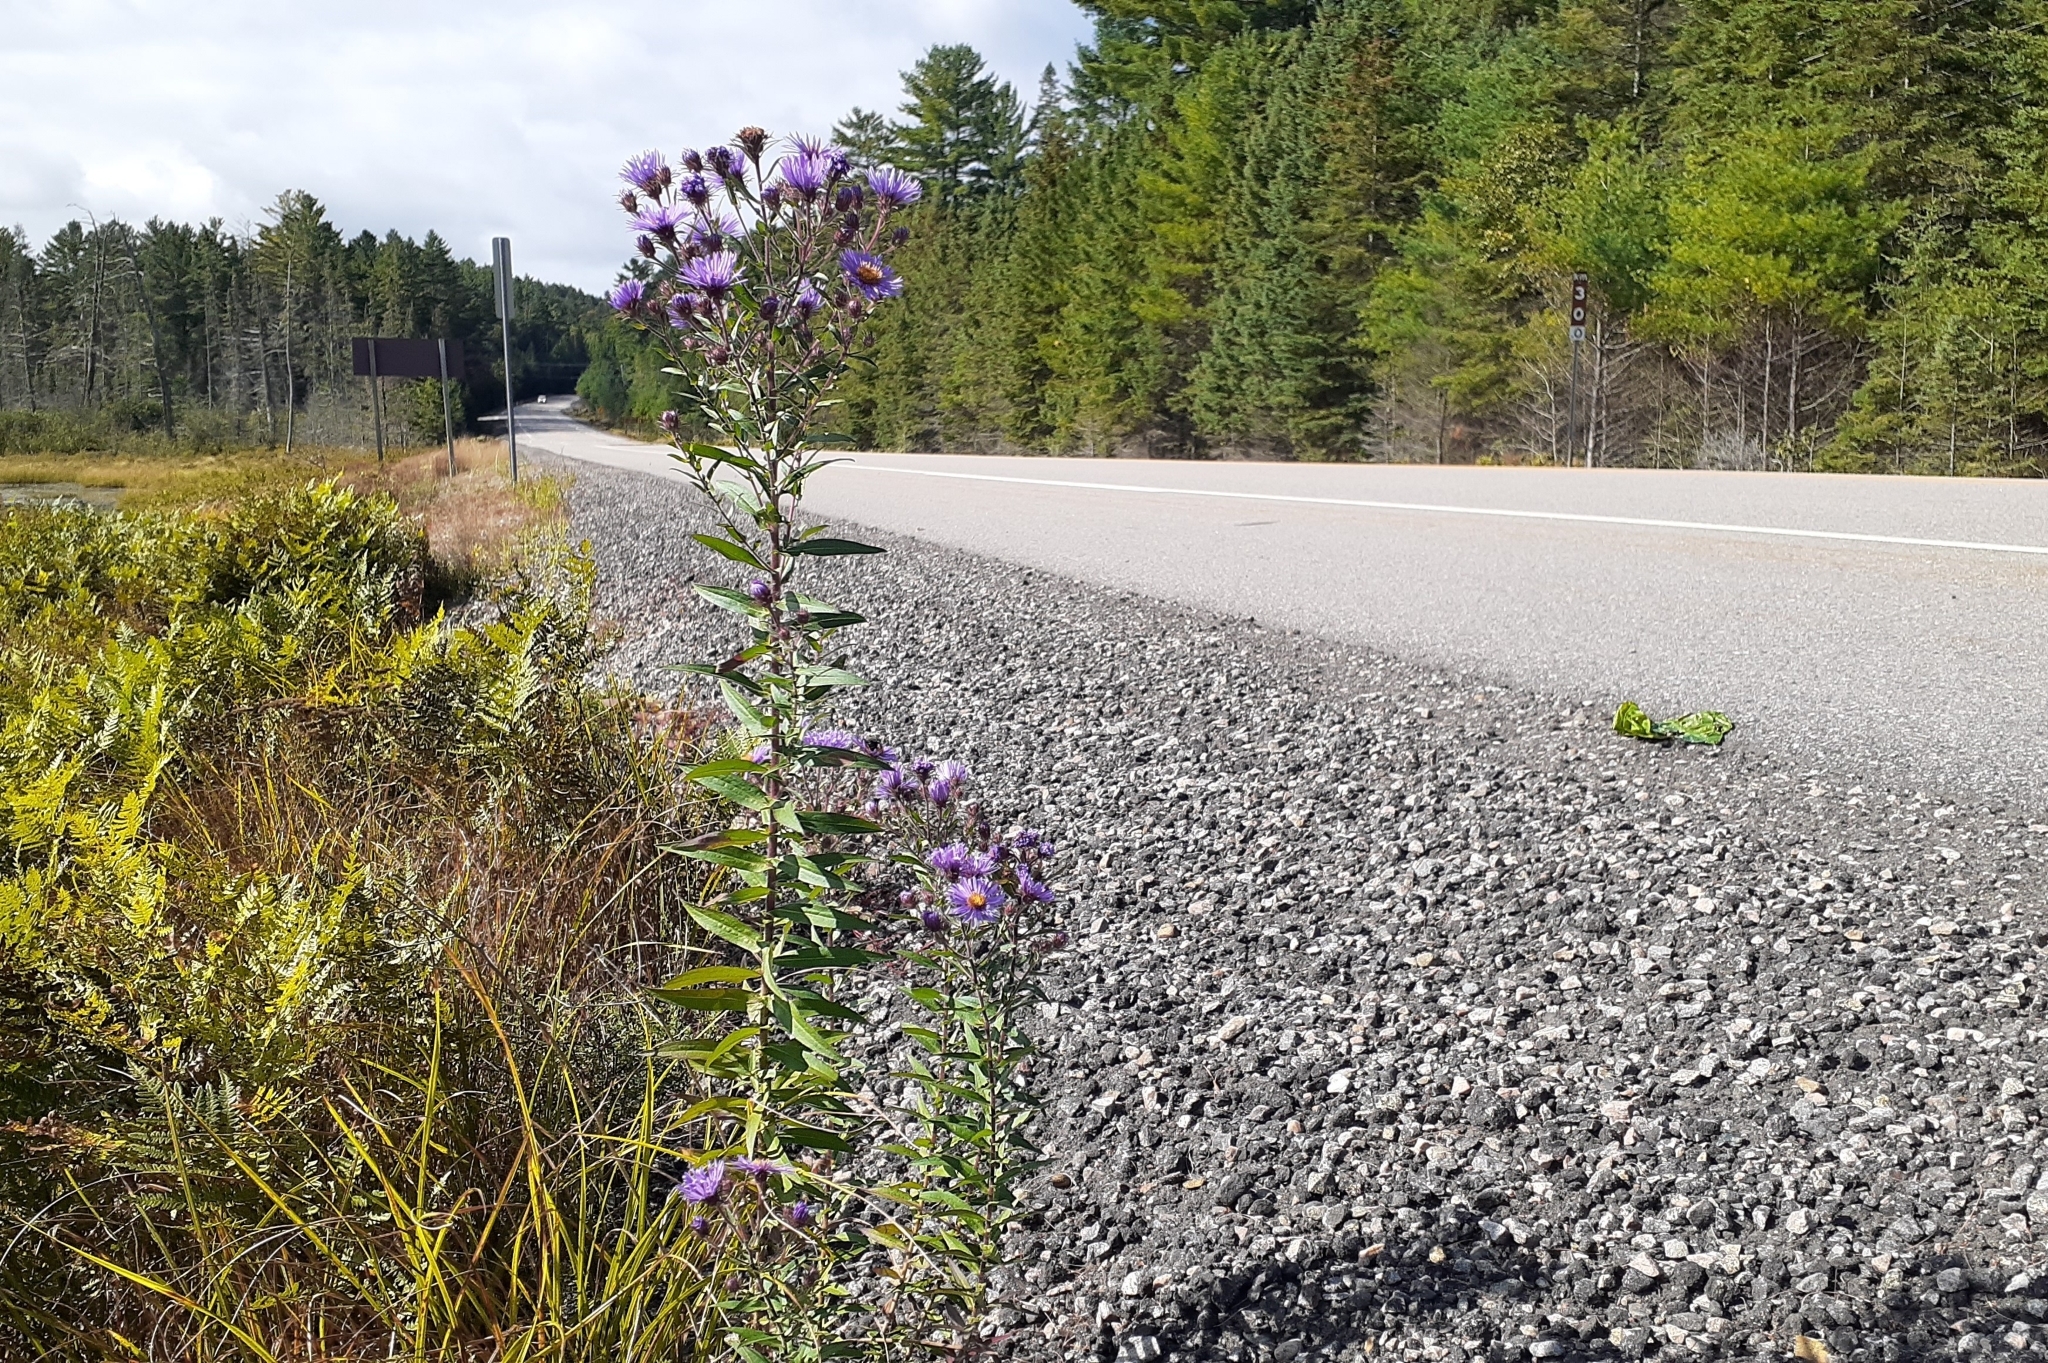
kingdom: Plantae
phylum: Tracheophyta
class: Magnoliopsida
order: Asterales
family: Asteraceae
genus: Symphyotrichum
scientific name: Symphyotrichum novae-angliae
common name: Michaelmas daisy
